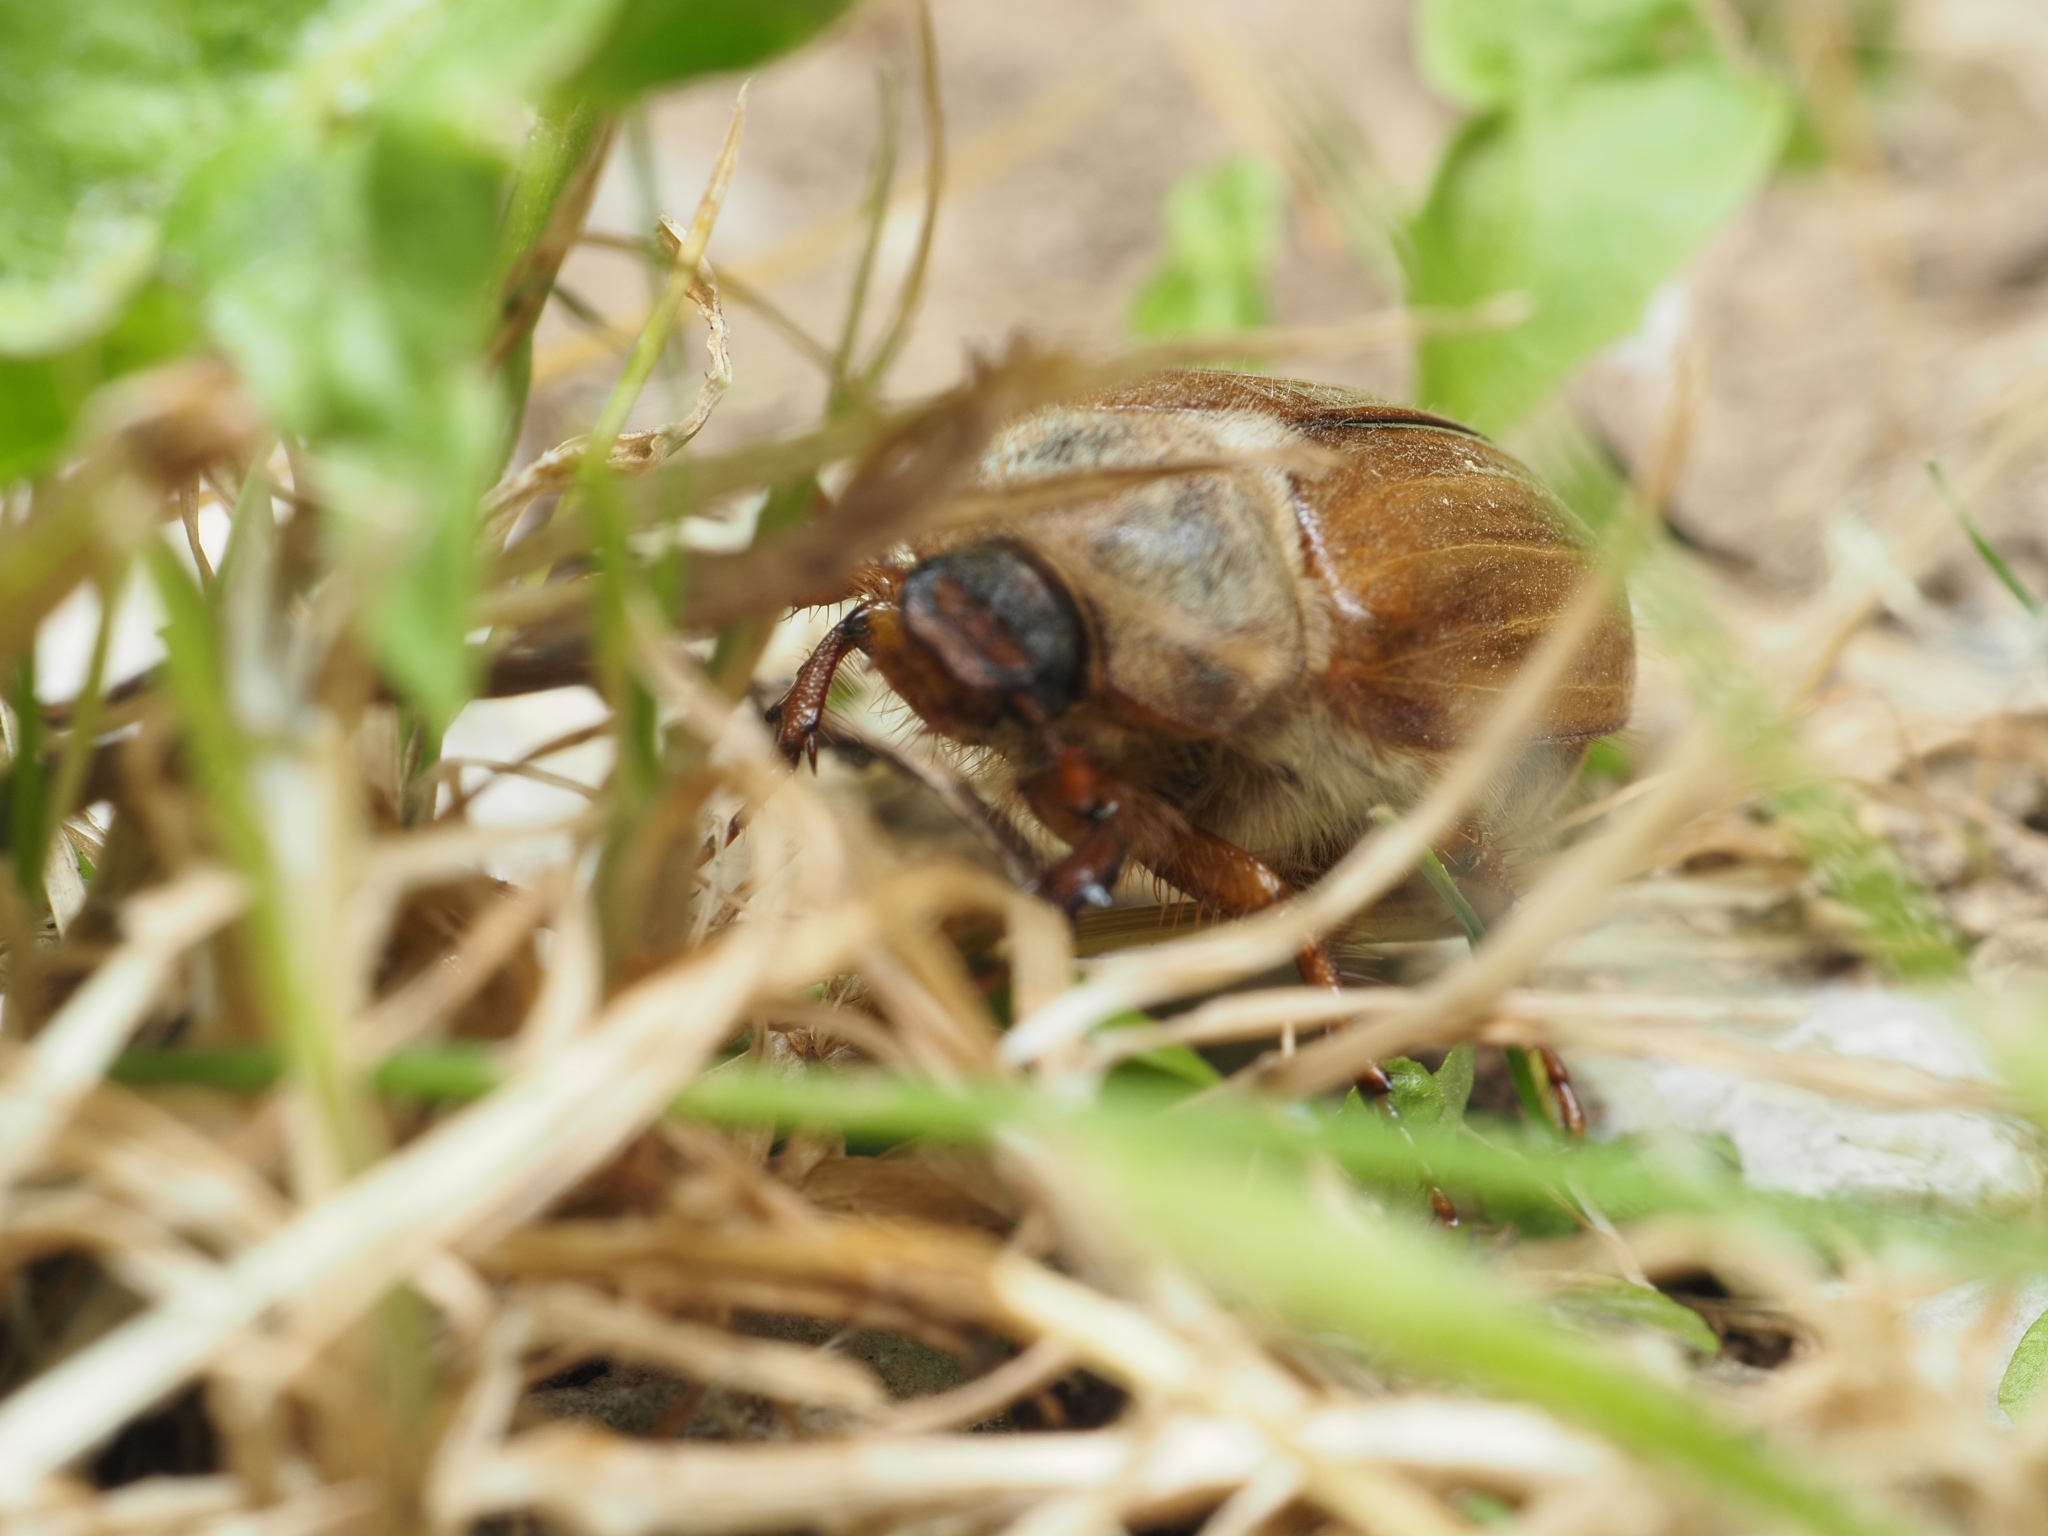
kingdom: Animalia
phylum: Arthropoda
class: Insecta
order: Coleoptera
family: Scarabaeidae
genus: Amphimallon
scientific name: Amphimallon solstitiale
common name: Summer chafer
